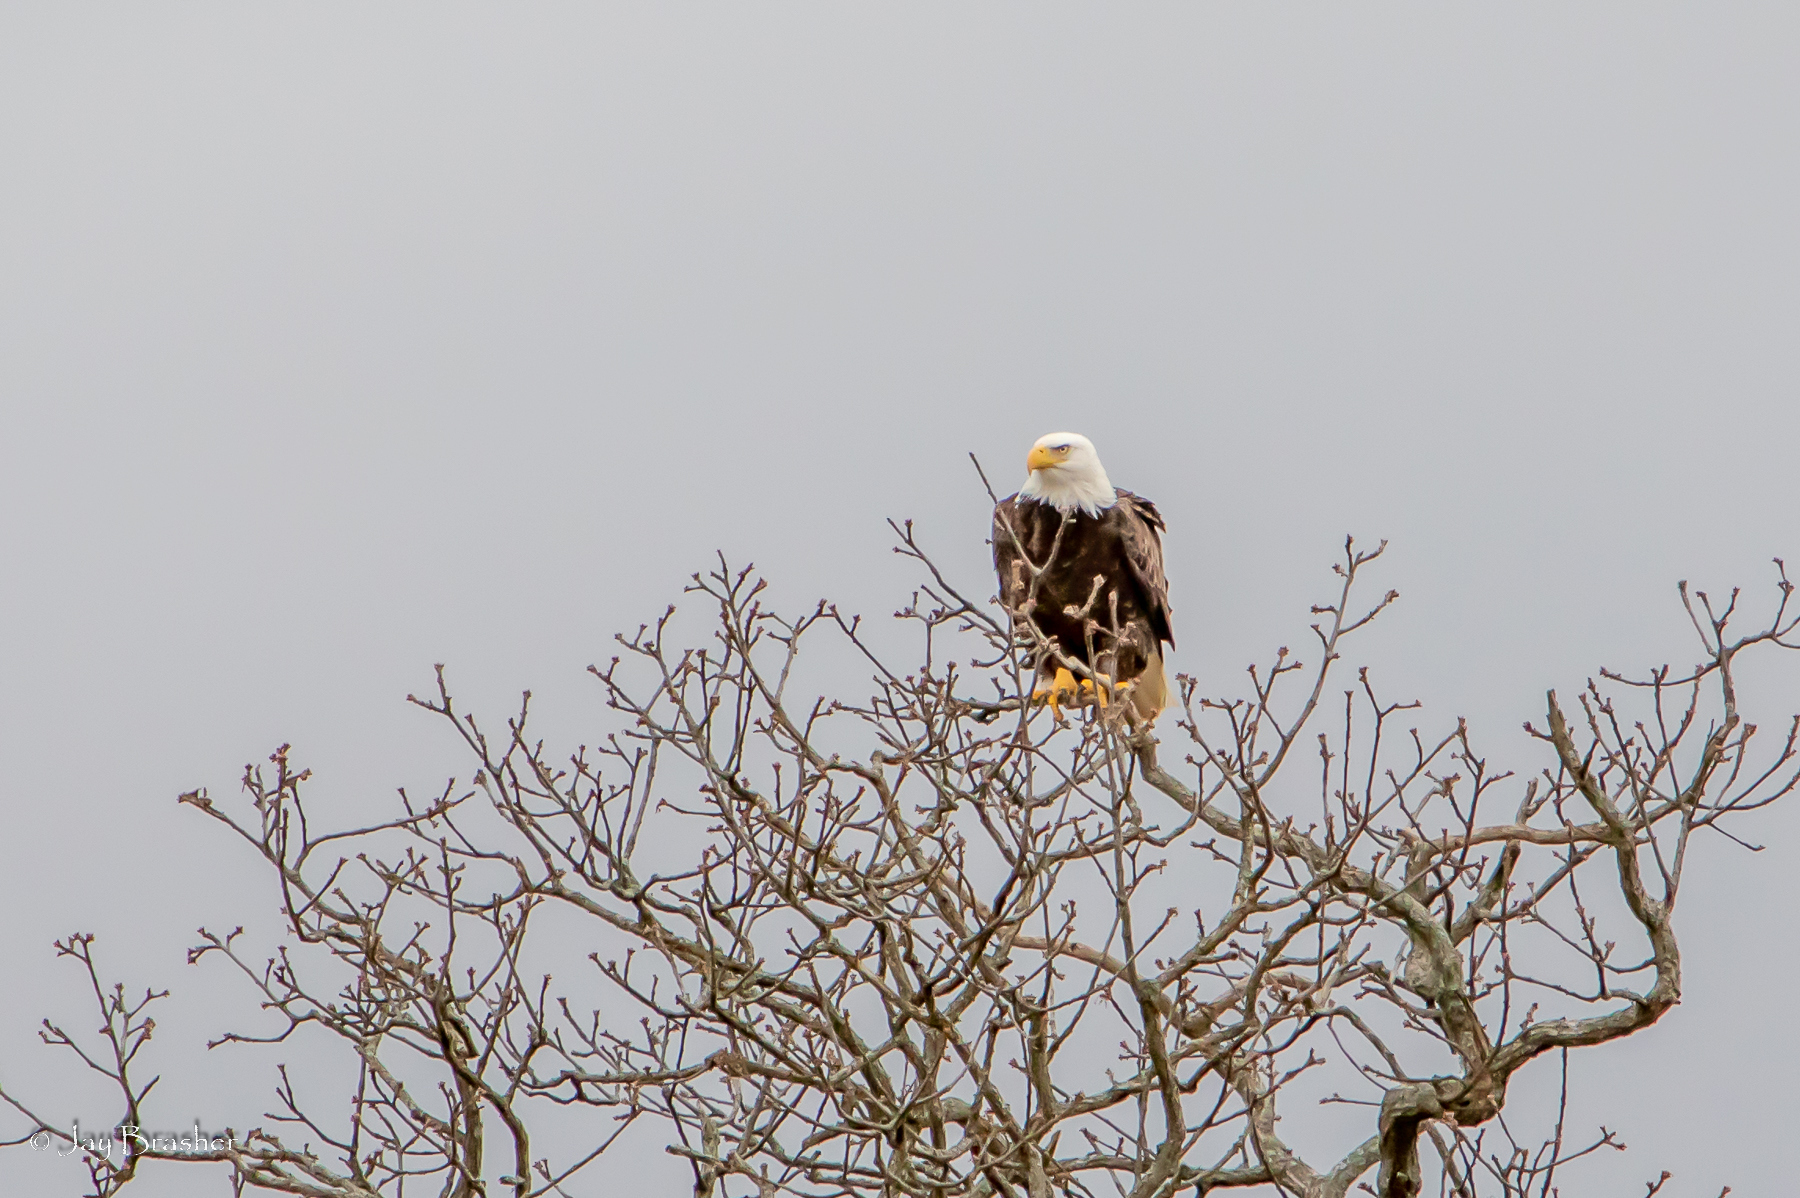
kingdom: Animalia
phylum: Chordata
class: Aves
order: Accipitriformes
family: Accipitridae
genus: Haliaeetus
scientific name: Haliaeetus leucocephalus
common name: Bald eagle
